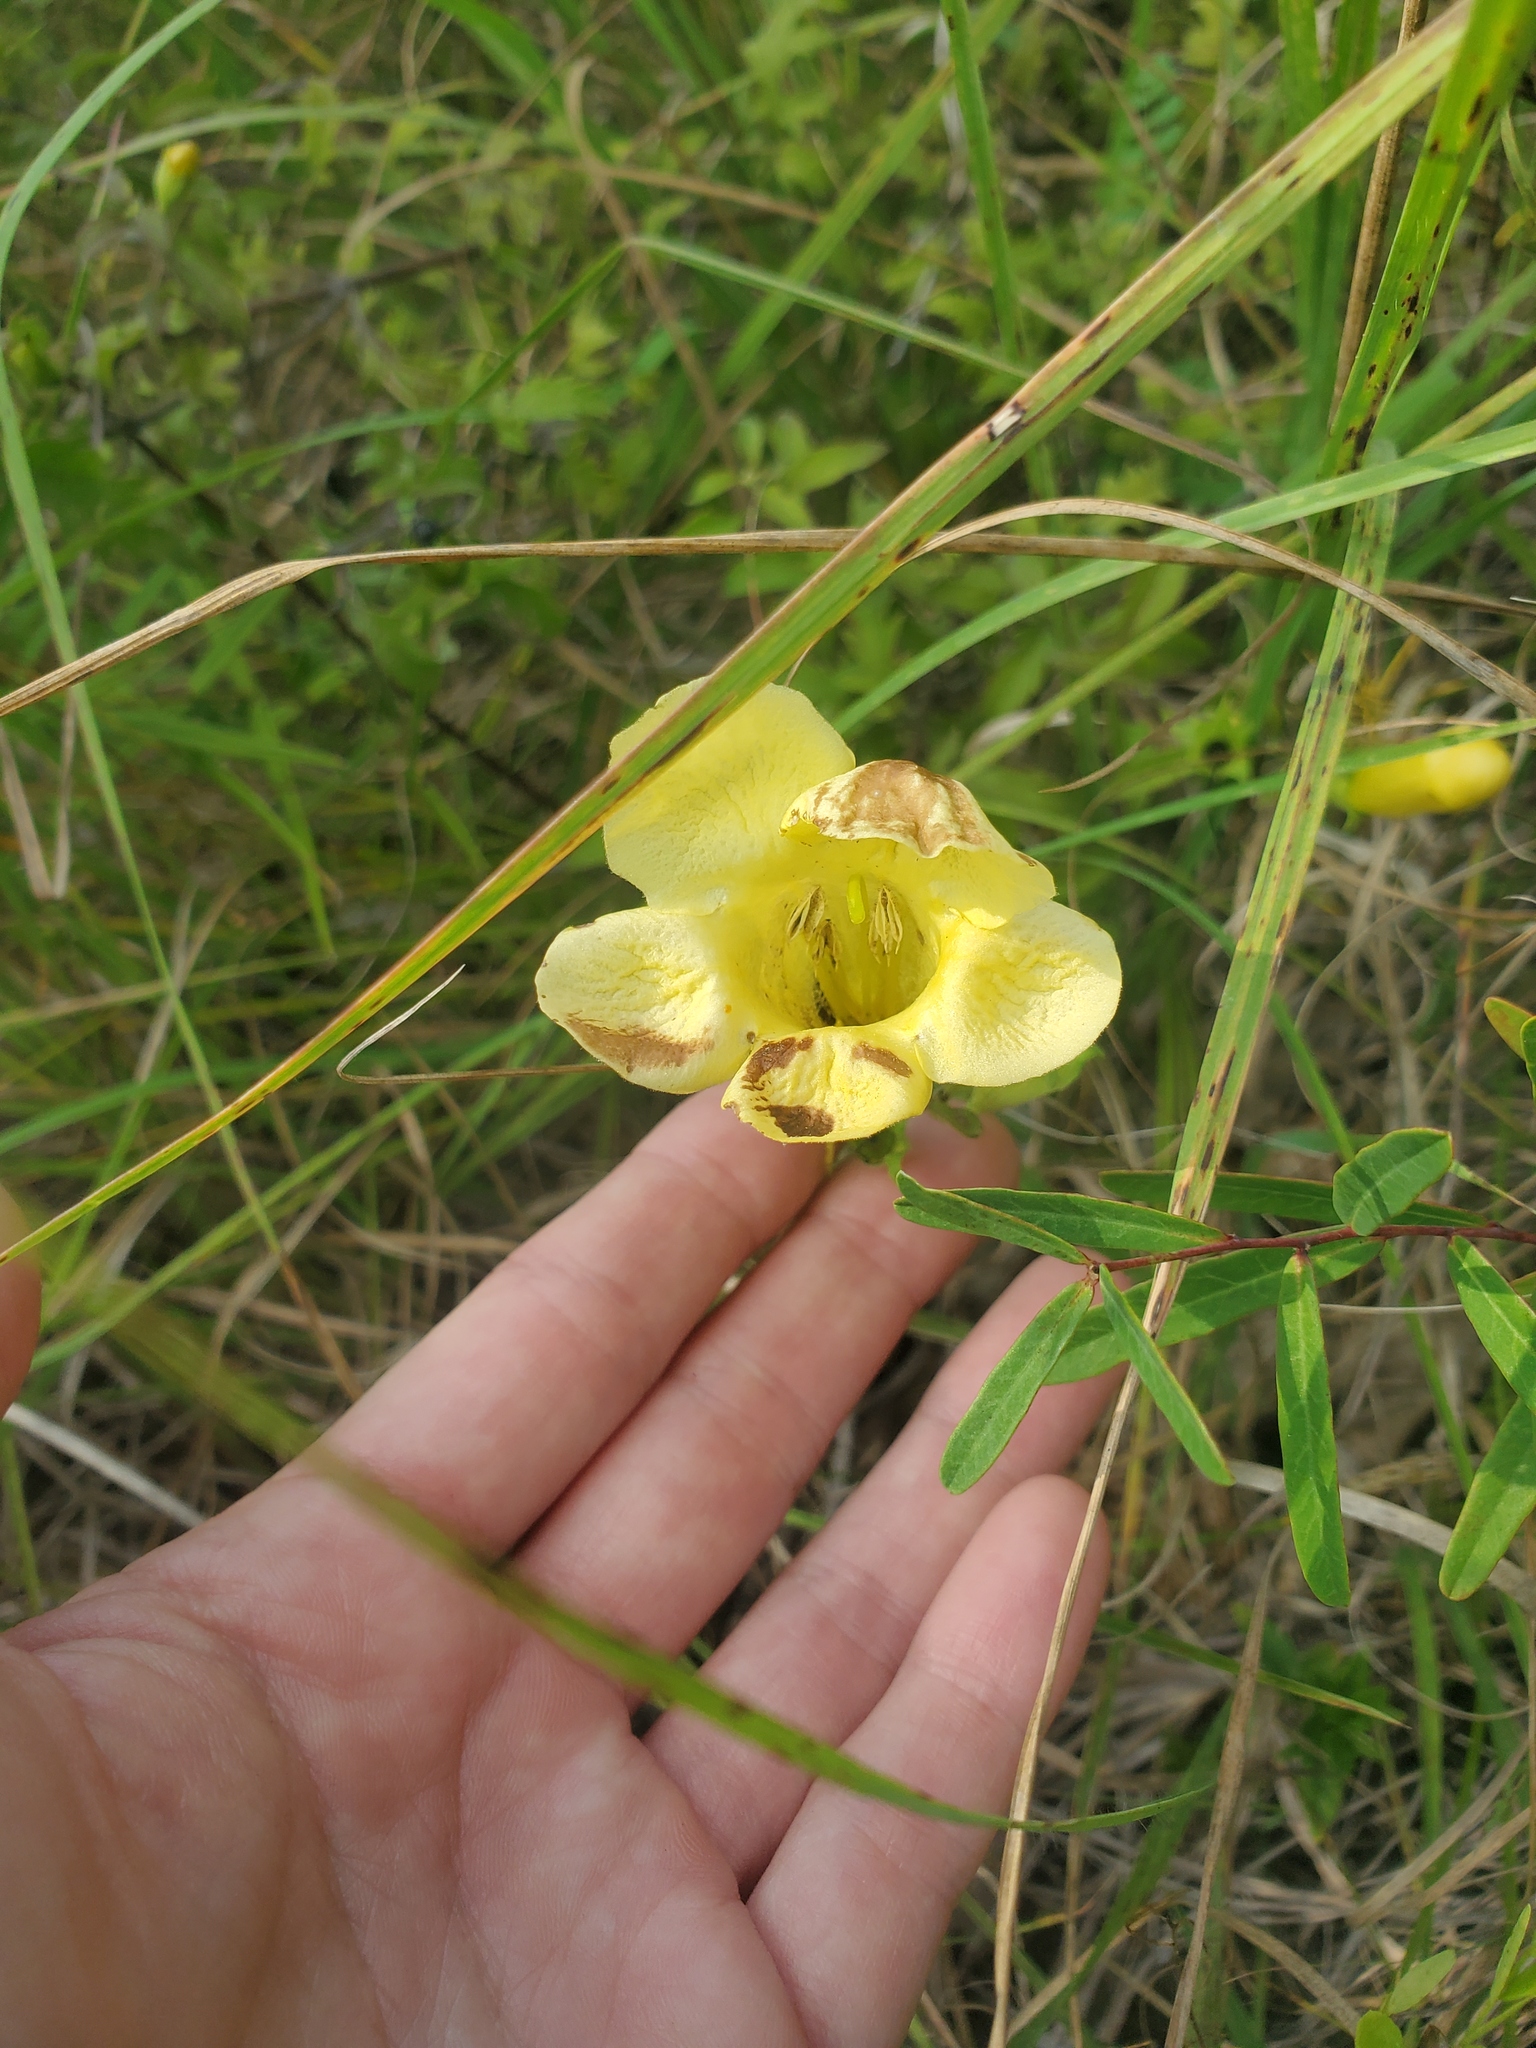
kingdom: Plantae
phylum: Tracheophyta
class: Magnoliopsida
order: Lamiales
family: Orobanchaceae
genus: Aureolaria
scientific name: Aureolaria grandiflora
